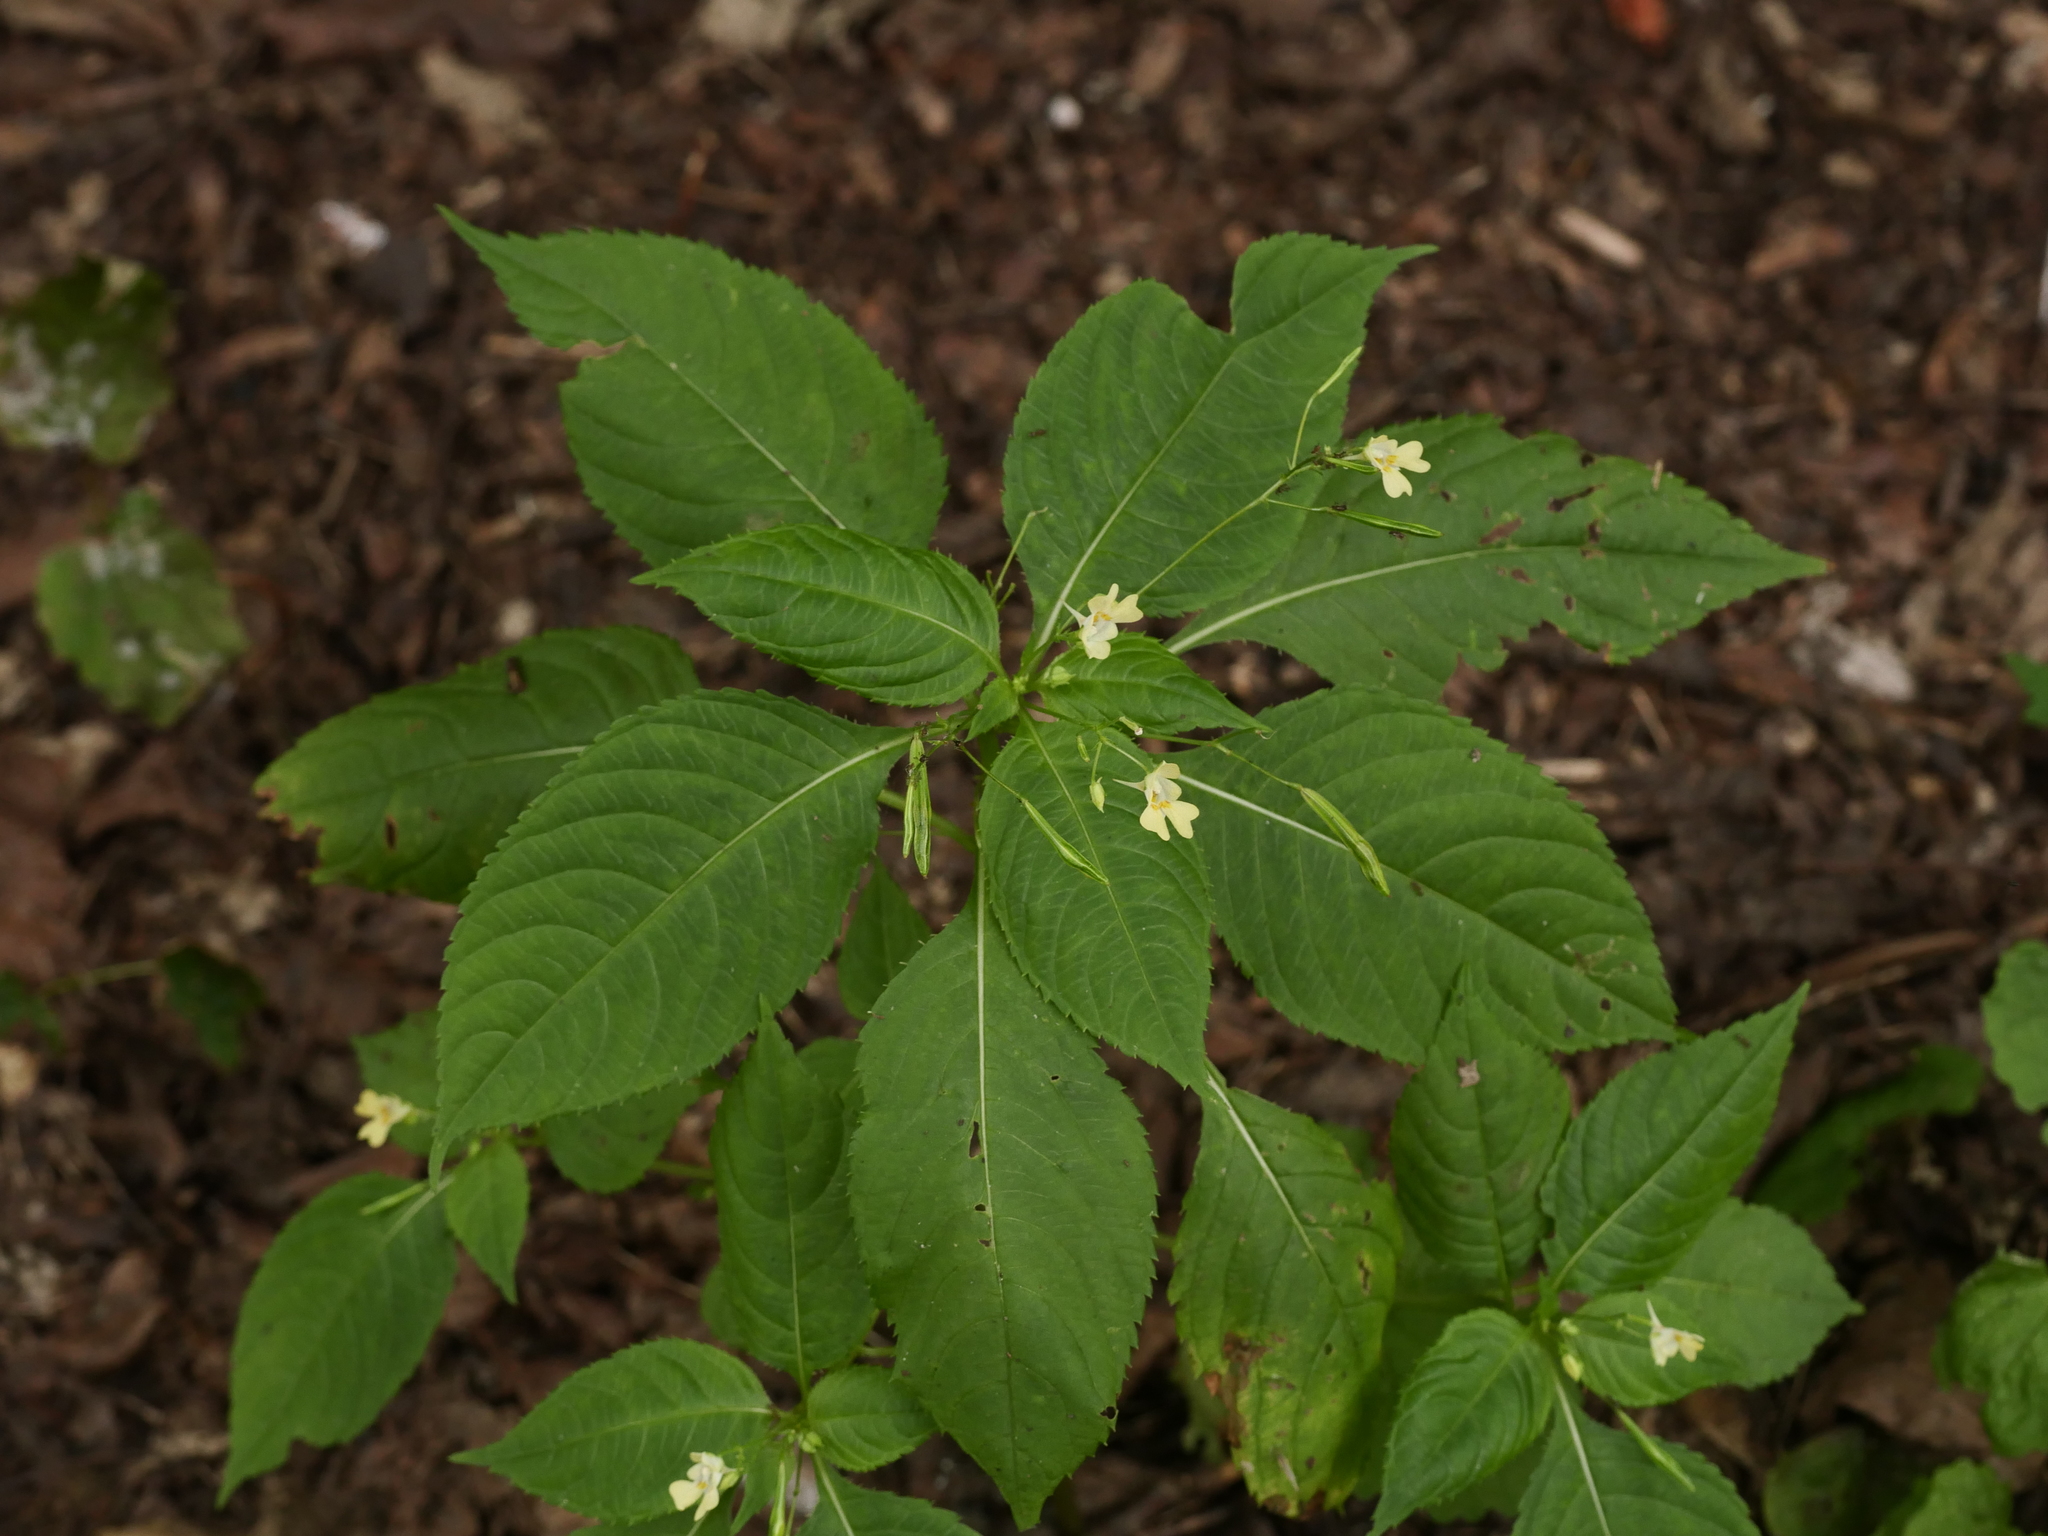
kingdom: Plantae
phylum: Tracheophyta
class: Magnoliopsida
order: Ericales
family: Balsaminaceae
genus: Impatiens
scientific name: Impatiens parviflora
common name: Small balsam
